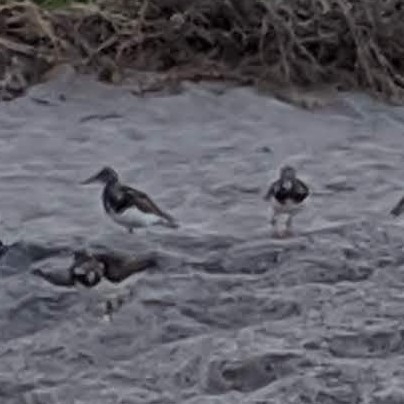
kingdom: Animalia
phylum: Chordata
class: Aves
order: Charadriiformes
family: Scolopacidae
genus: Arenaria
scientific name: Arenaria interpres
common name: Ruddy turnstone
